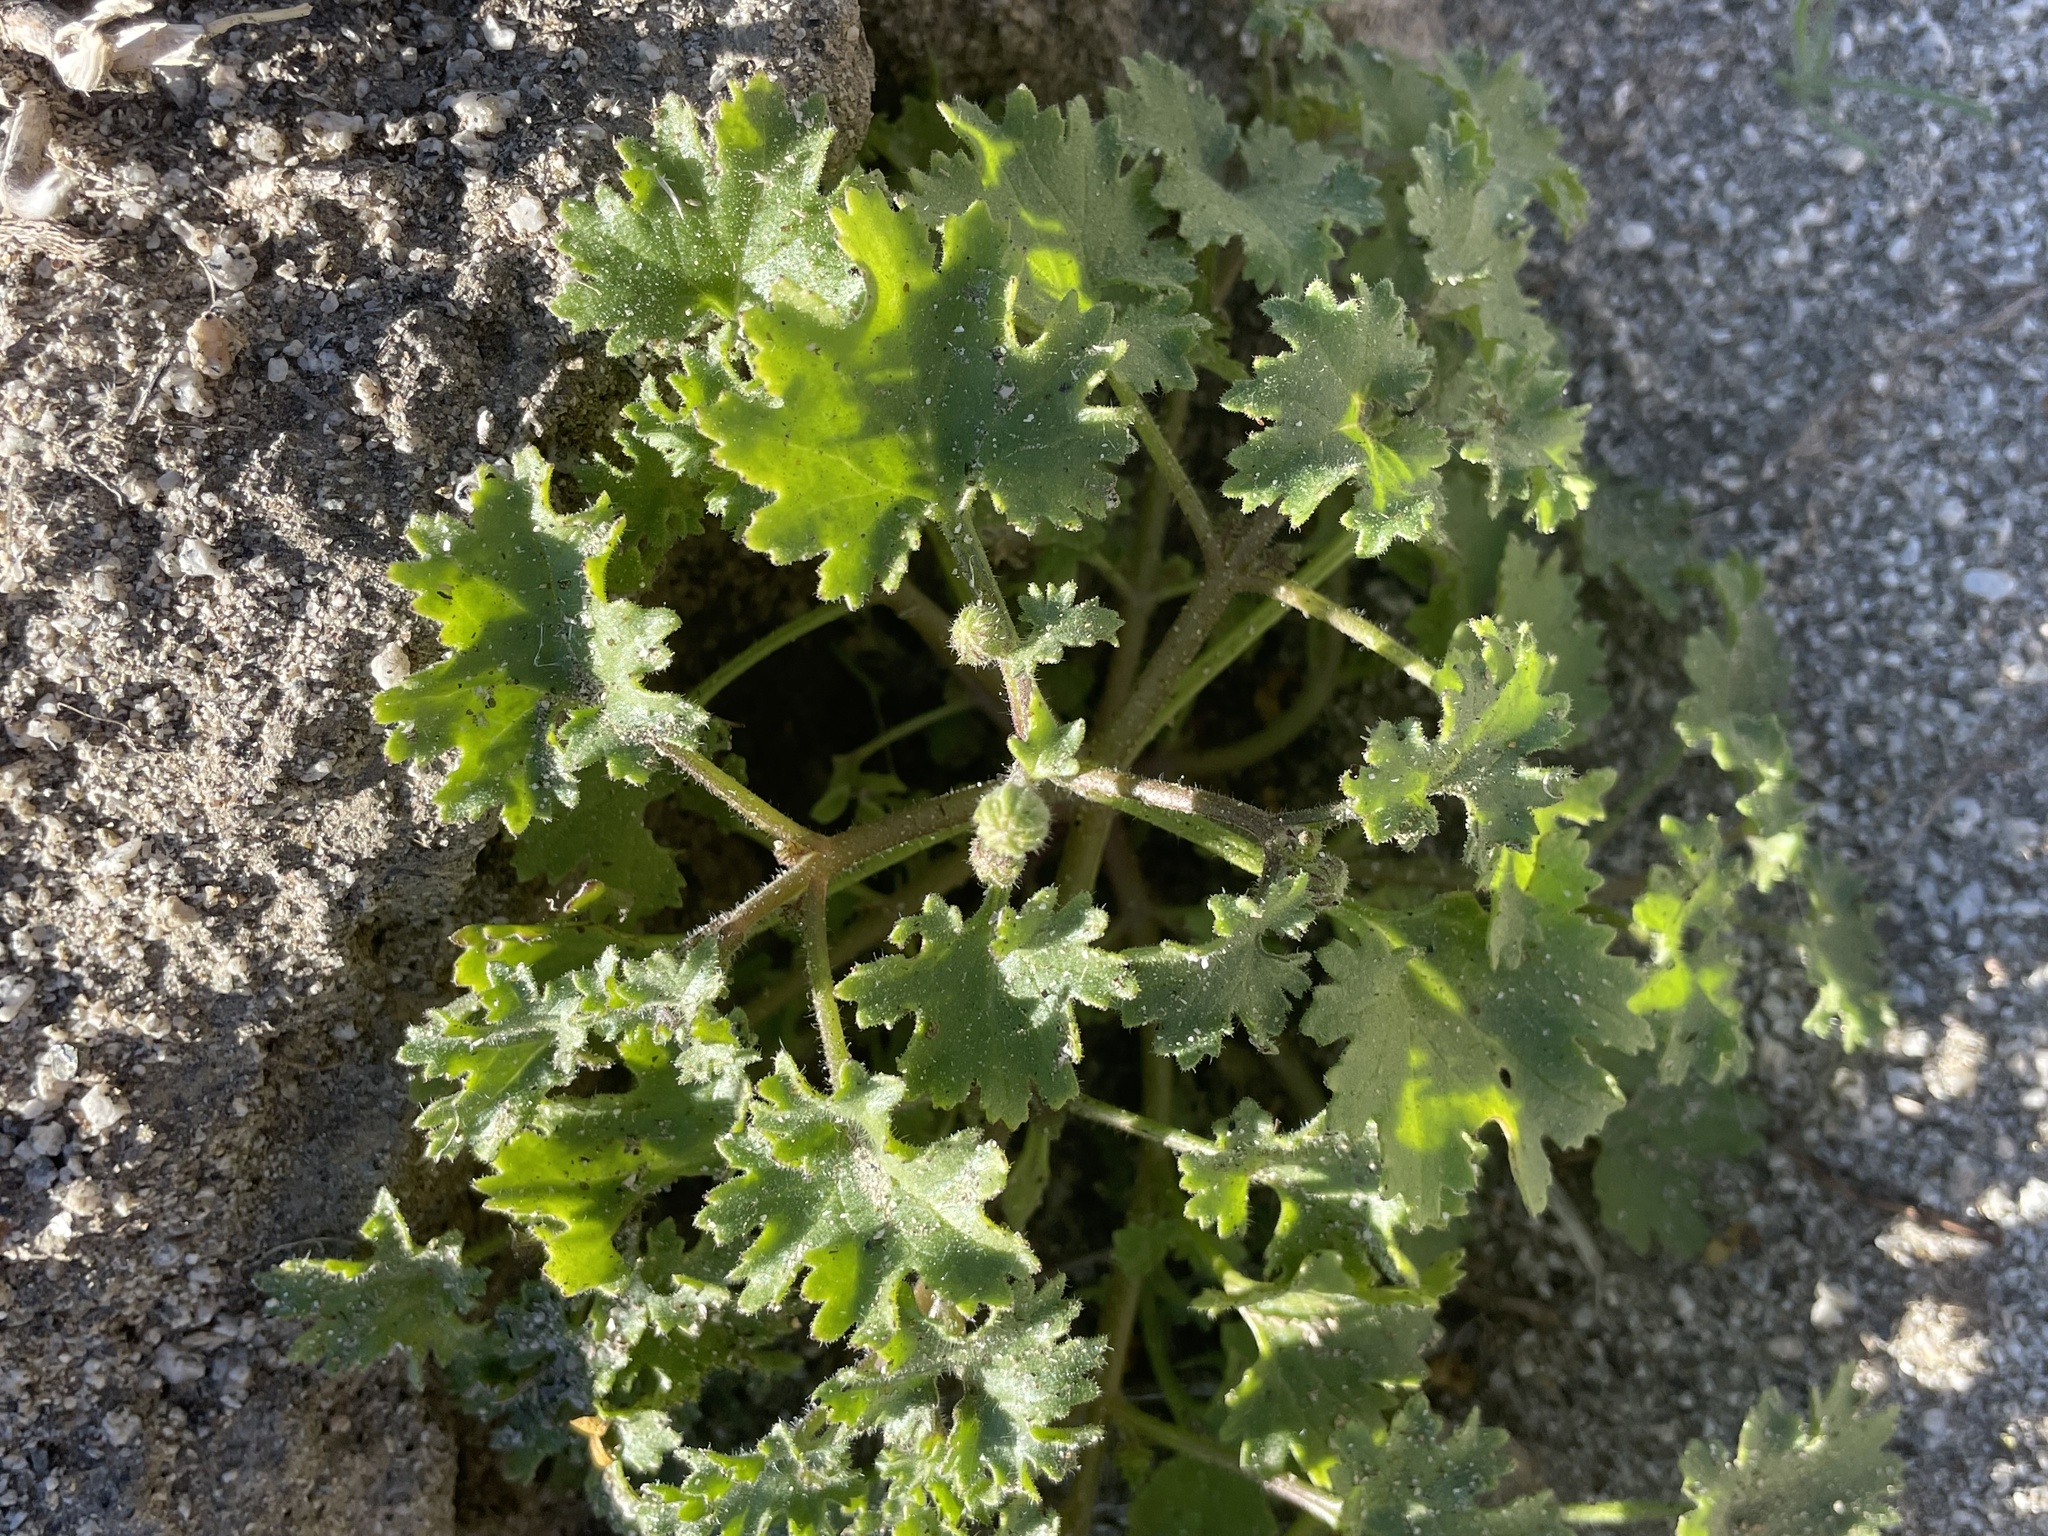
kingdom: Plantae
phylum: Tracheophyta
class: Magnoliopsida
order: Asterales
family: Asteraceae
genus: Laphamia
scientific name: Laphamia emoryi
